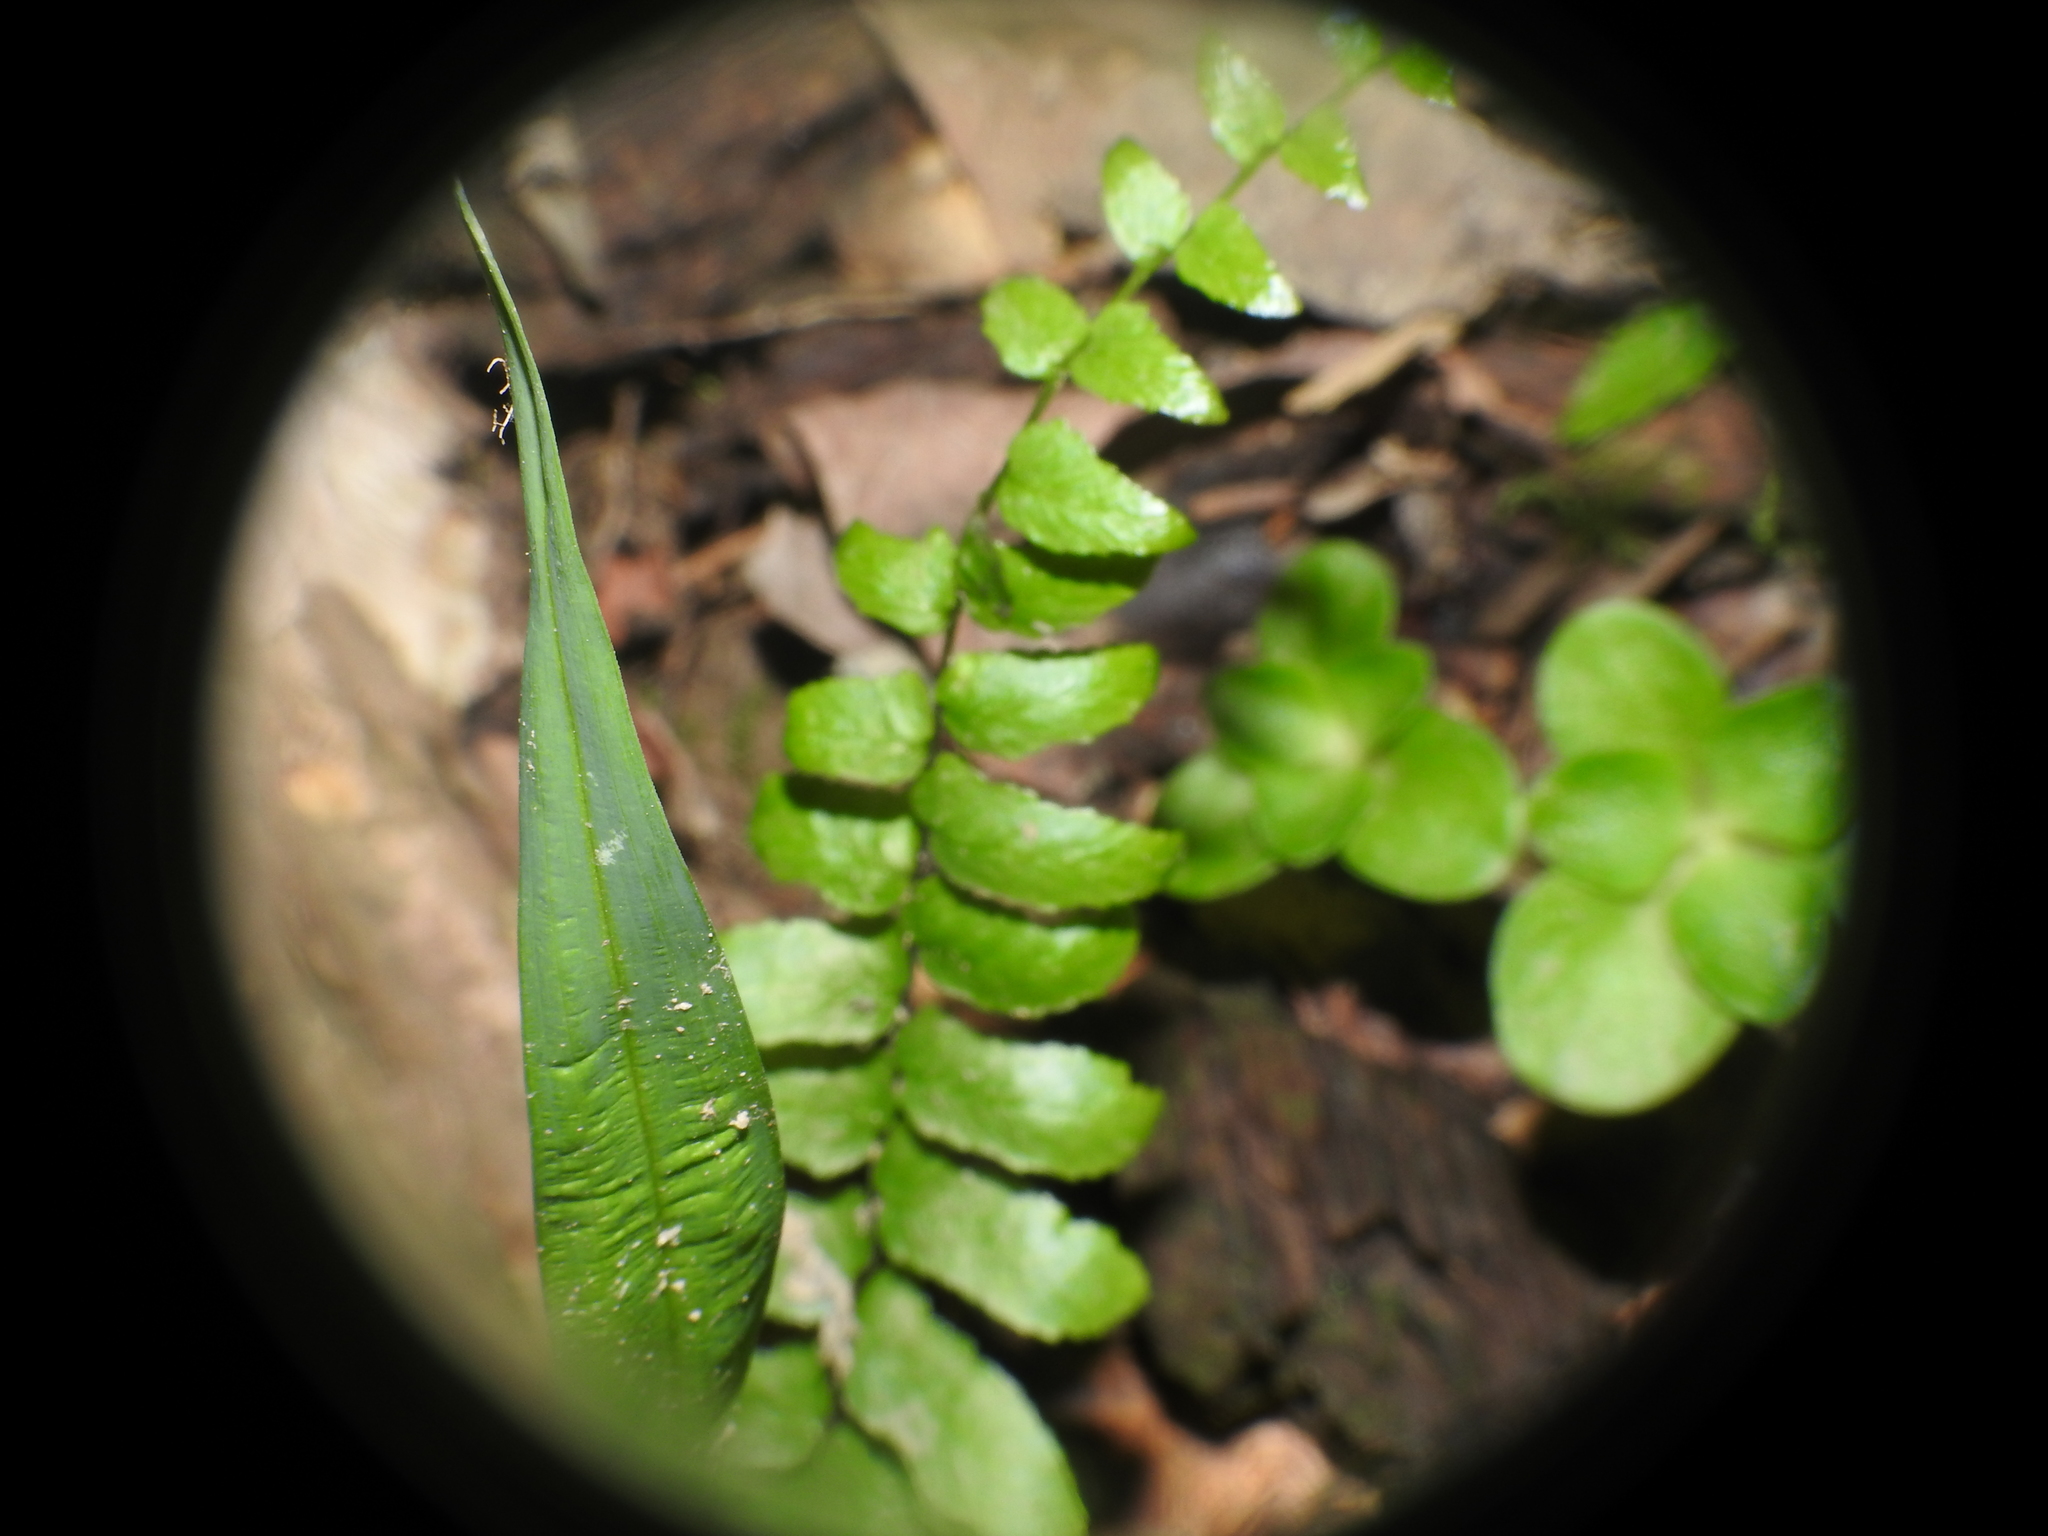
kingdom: Plantae
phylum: Tracheophyta
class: Polypodiopsida
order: Polypodiales
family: Aspleniaceae
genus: Asplenium
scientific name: Asplenium platyneuron
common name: Ebony spleenwort
